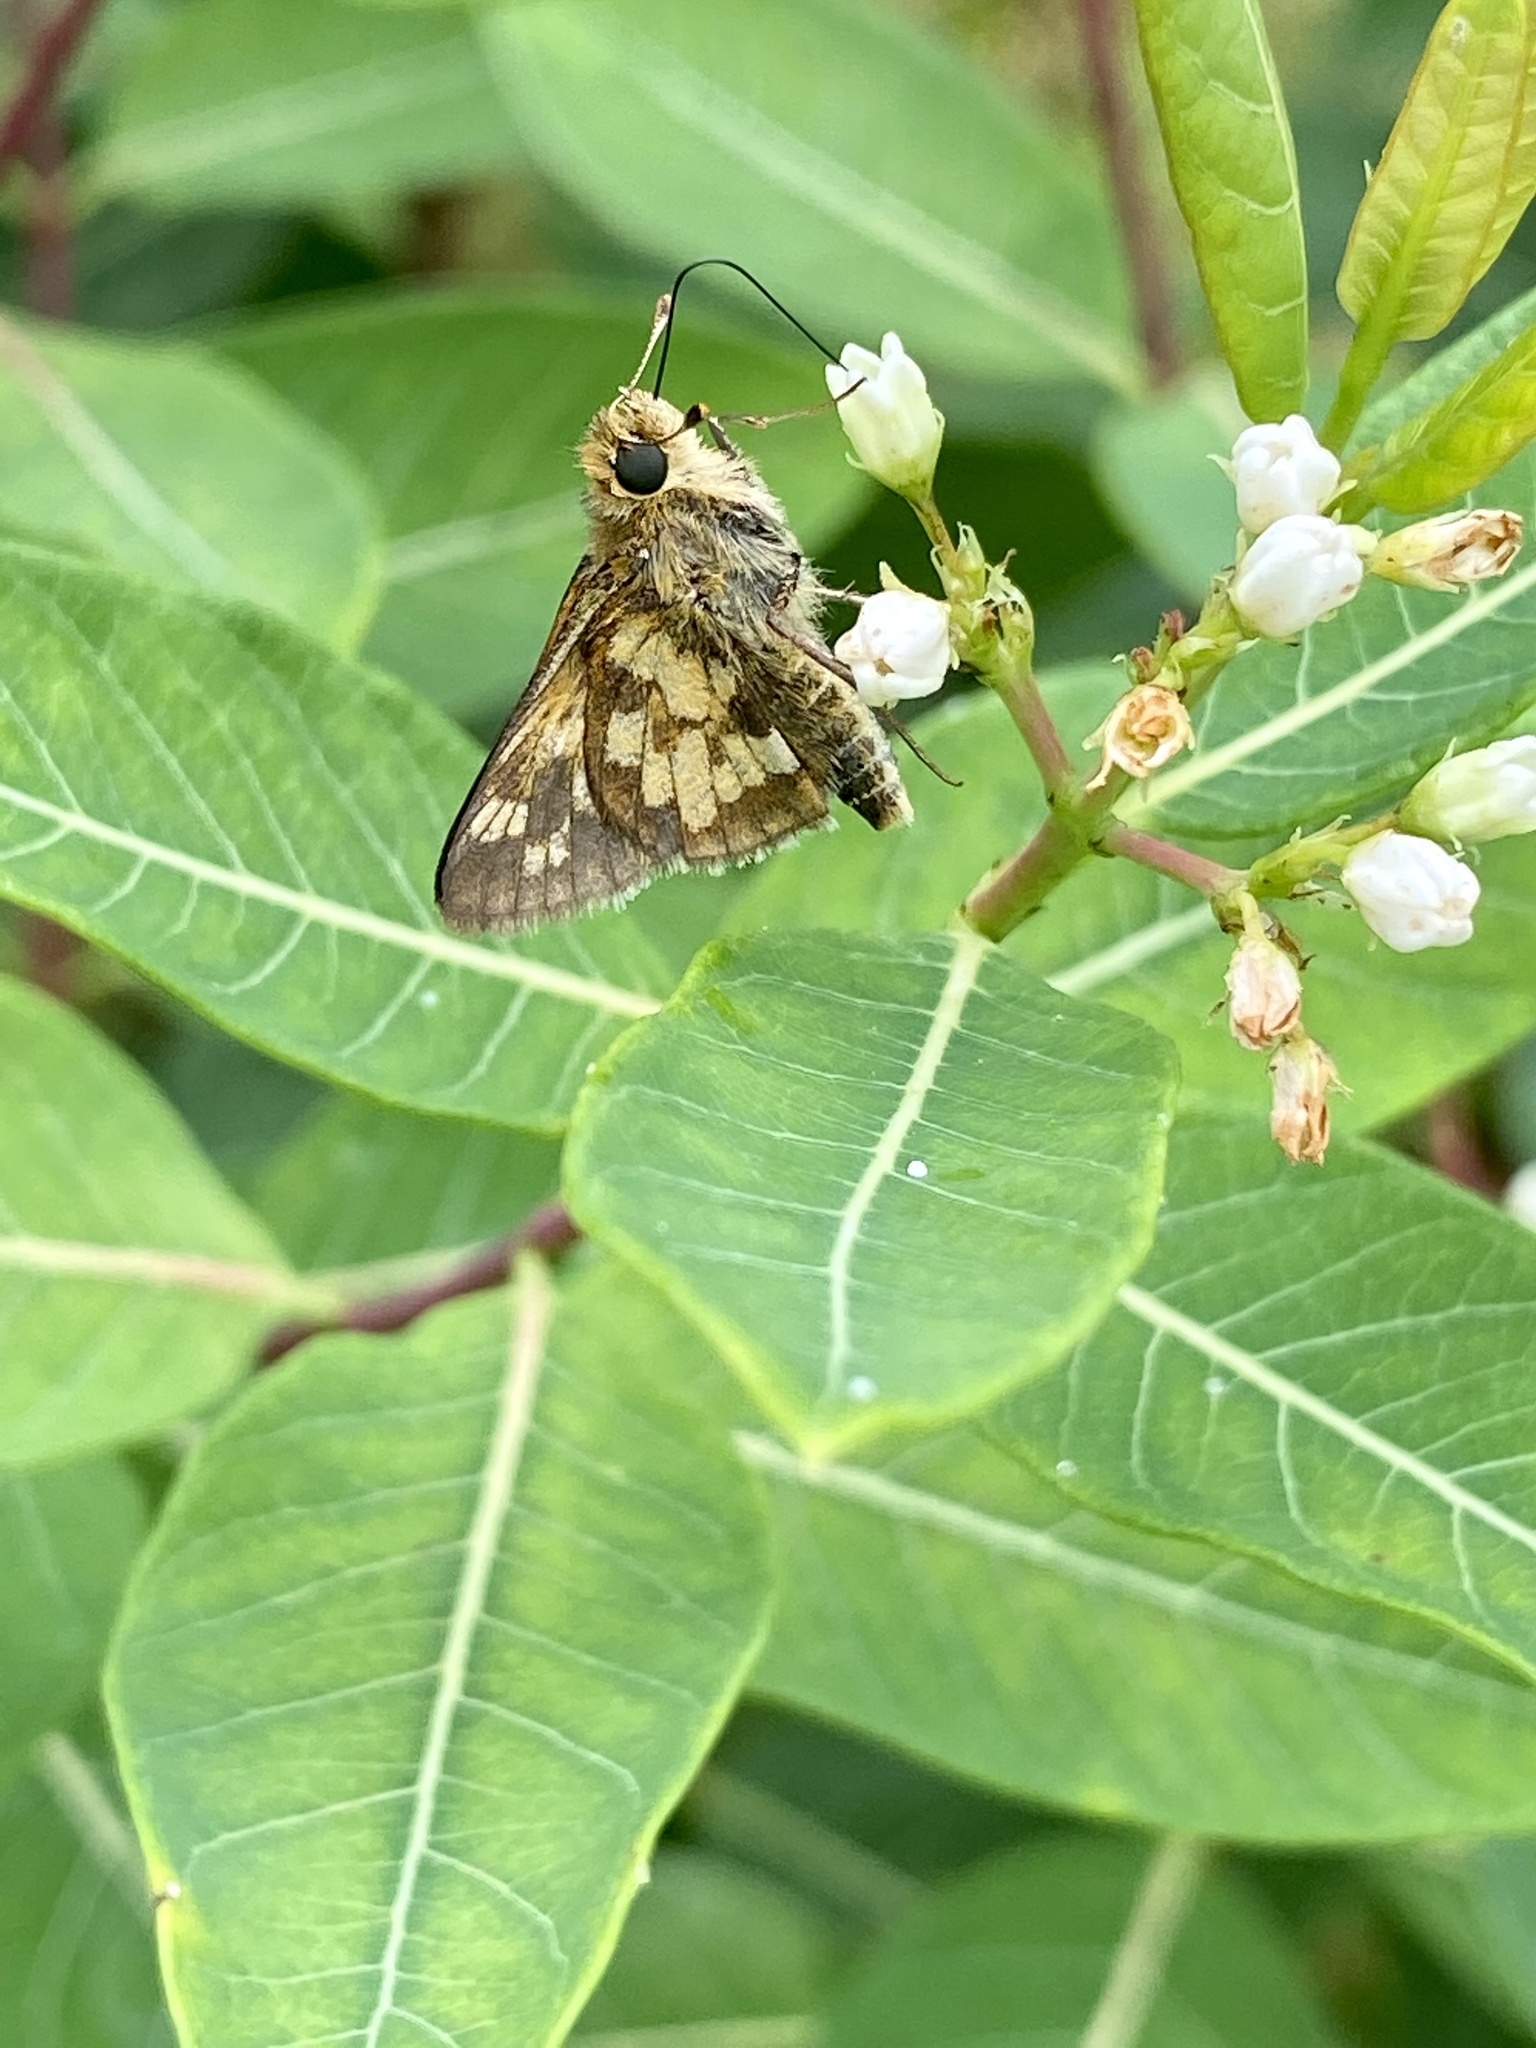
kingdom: Animalia
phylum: Arthropoda
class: Insecta
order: Lepidoptera
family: Hesperiidae
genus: Polites
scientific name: Polites coras
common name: Peck's skipper
